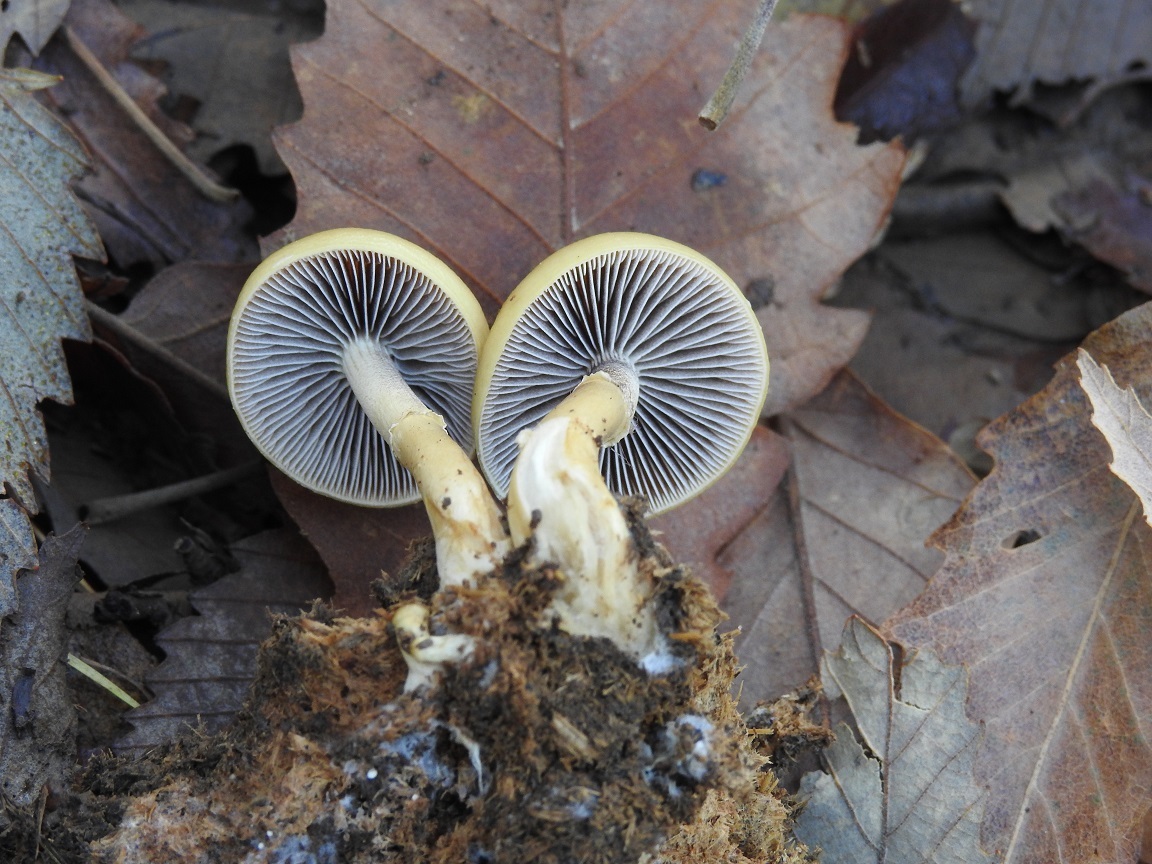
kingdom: Fungi
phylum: Basidiomycota
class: Agaricomycetes
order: Agaricales
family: Strophariaceae
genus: Hypholoma
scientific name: Hypholoma capnoides
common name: Conifer tuft
